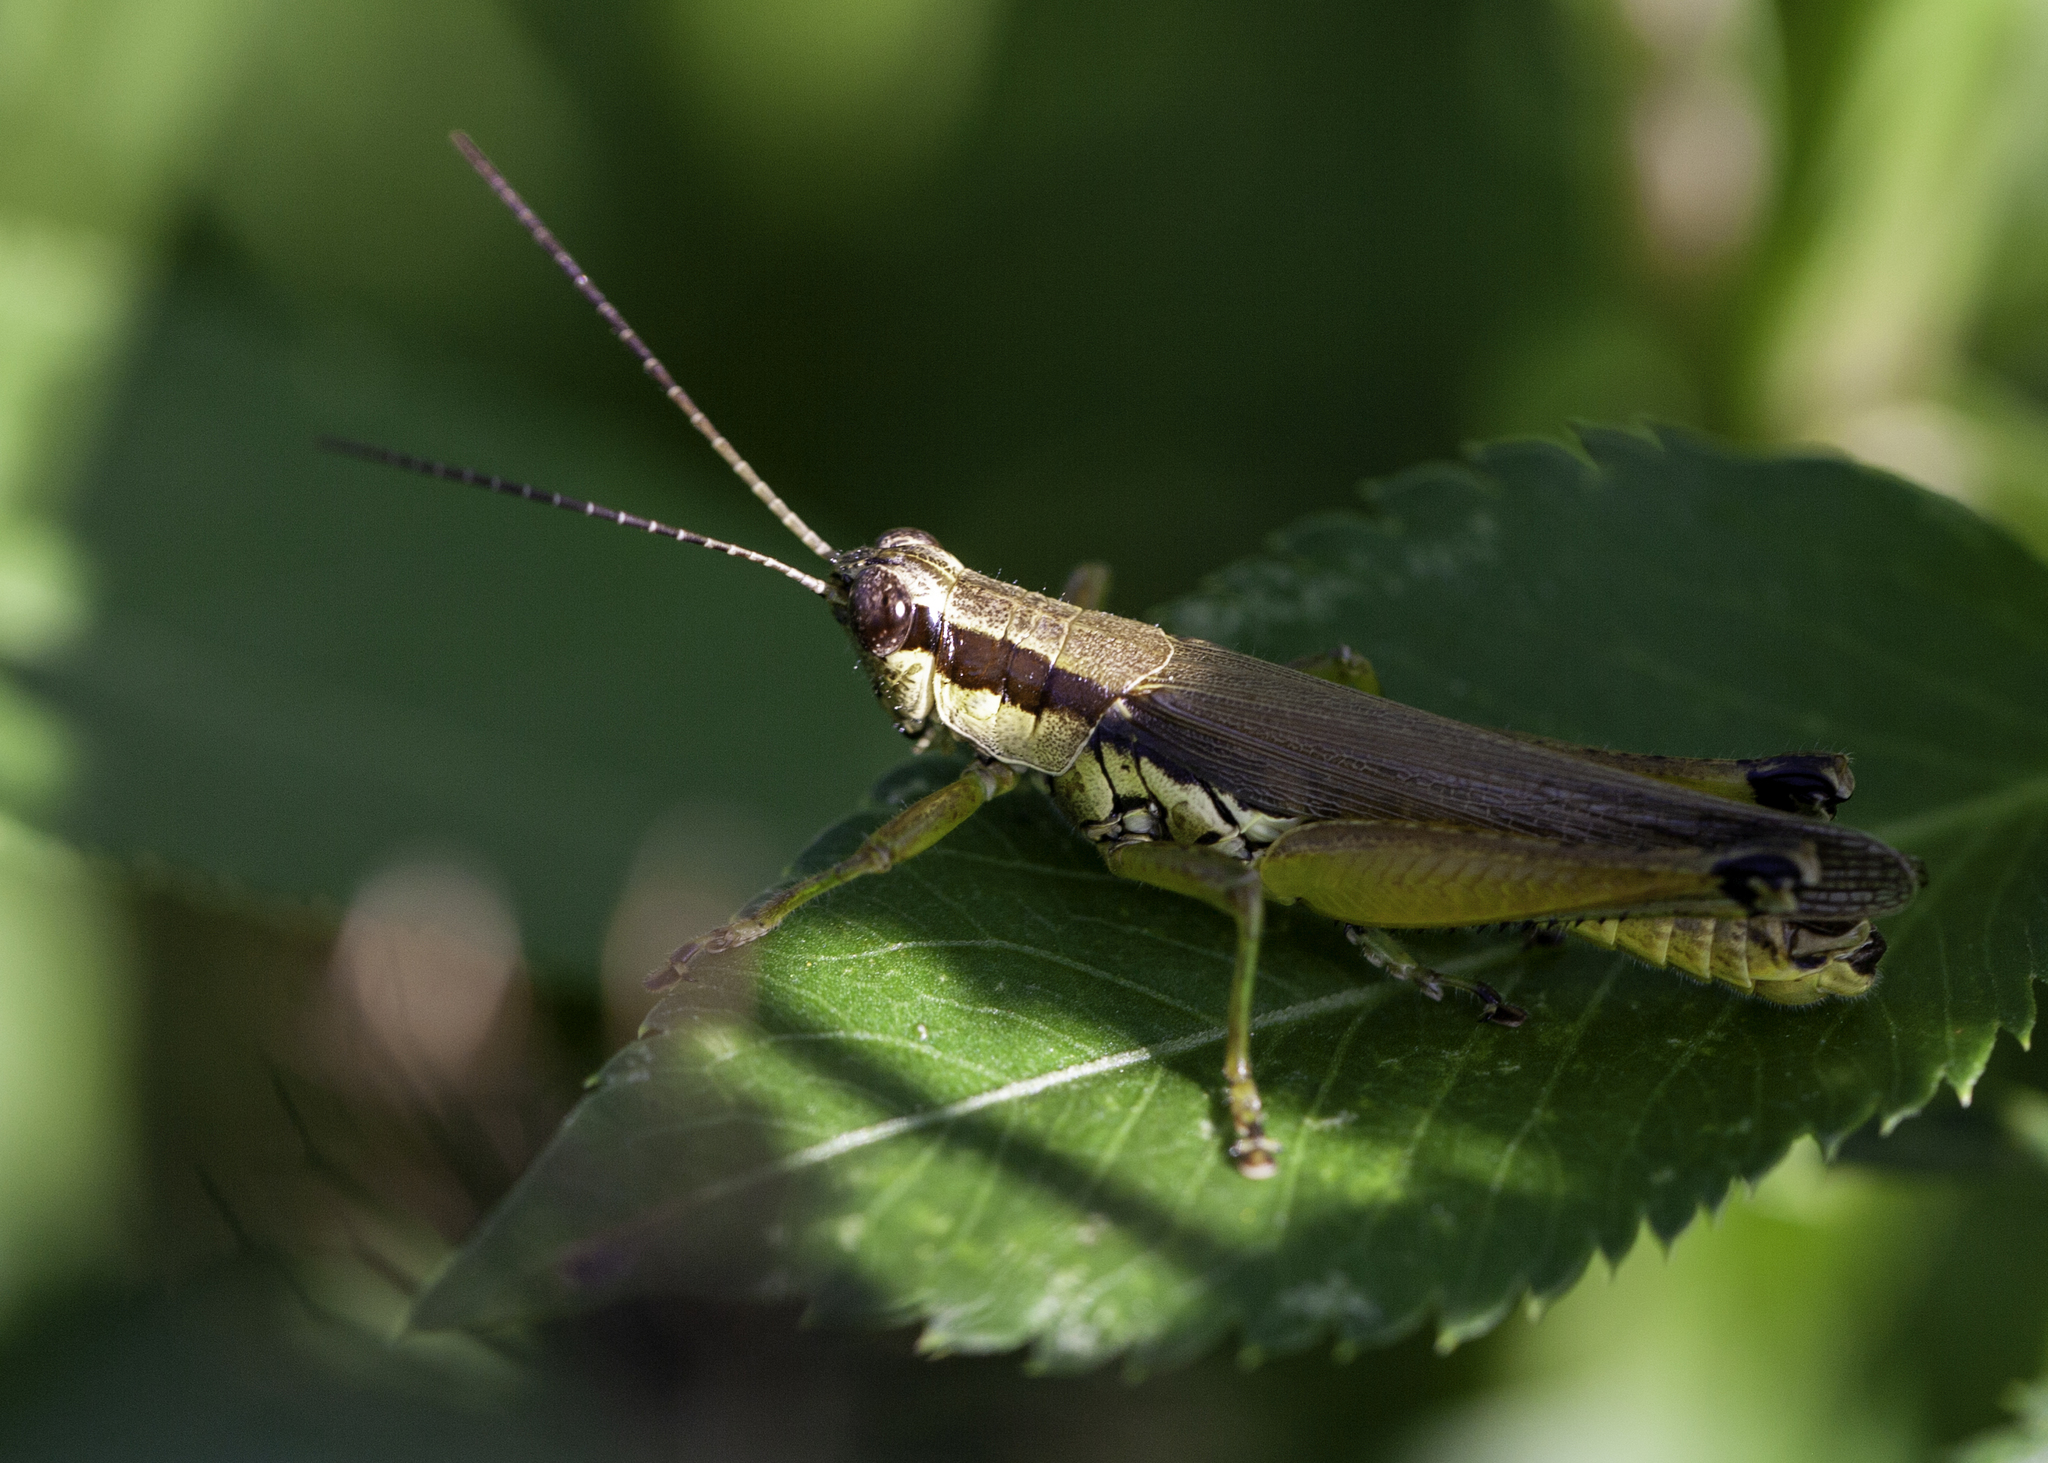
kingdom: Animalia
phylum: Arthropoda
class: Insecta
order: Orthoptera
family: Acrididae
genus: Paroxya
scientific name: Paroxya clavuligera
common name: Olive-green swamp grasshopper
